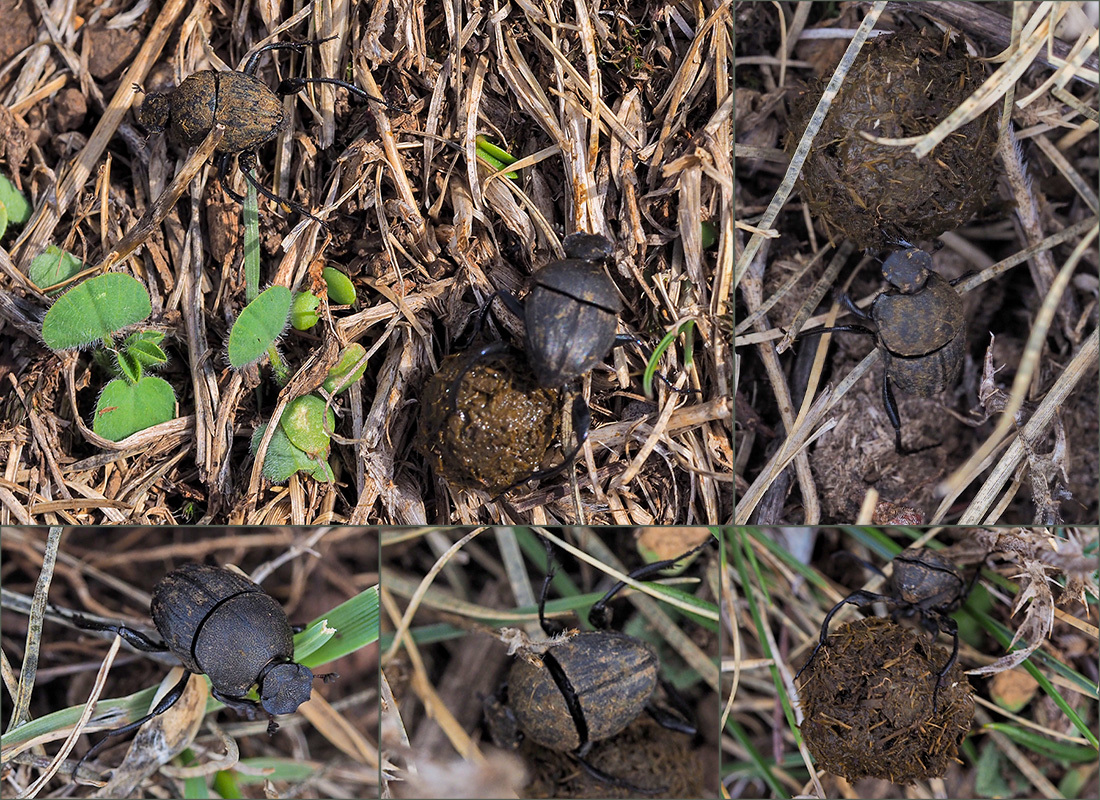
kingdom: Animalia
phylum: Arthropoda
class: Insecta
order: Coleoptera
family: Scarabaeidae
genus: Sisyphus
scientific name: Sisyphus schaefferi
